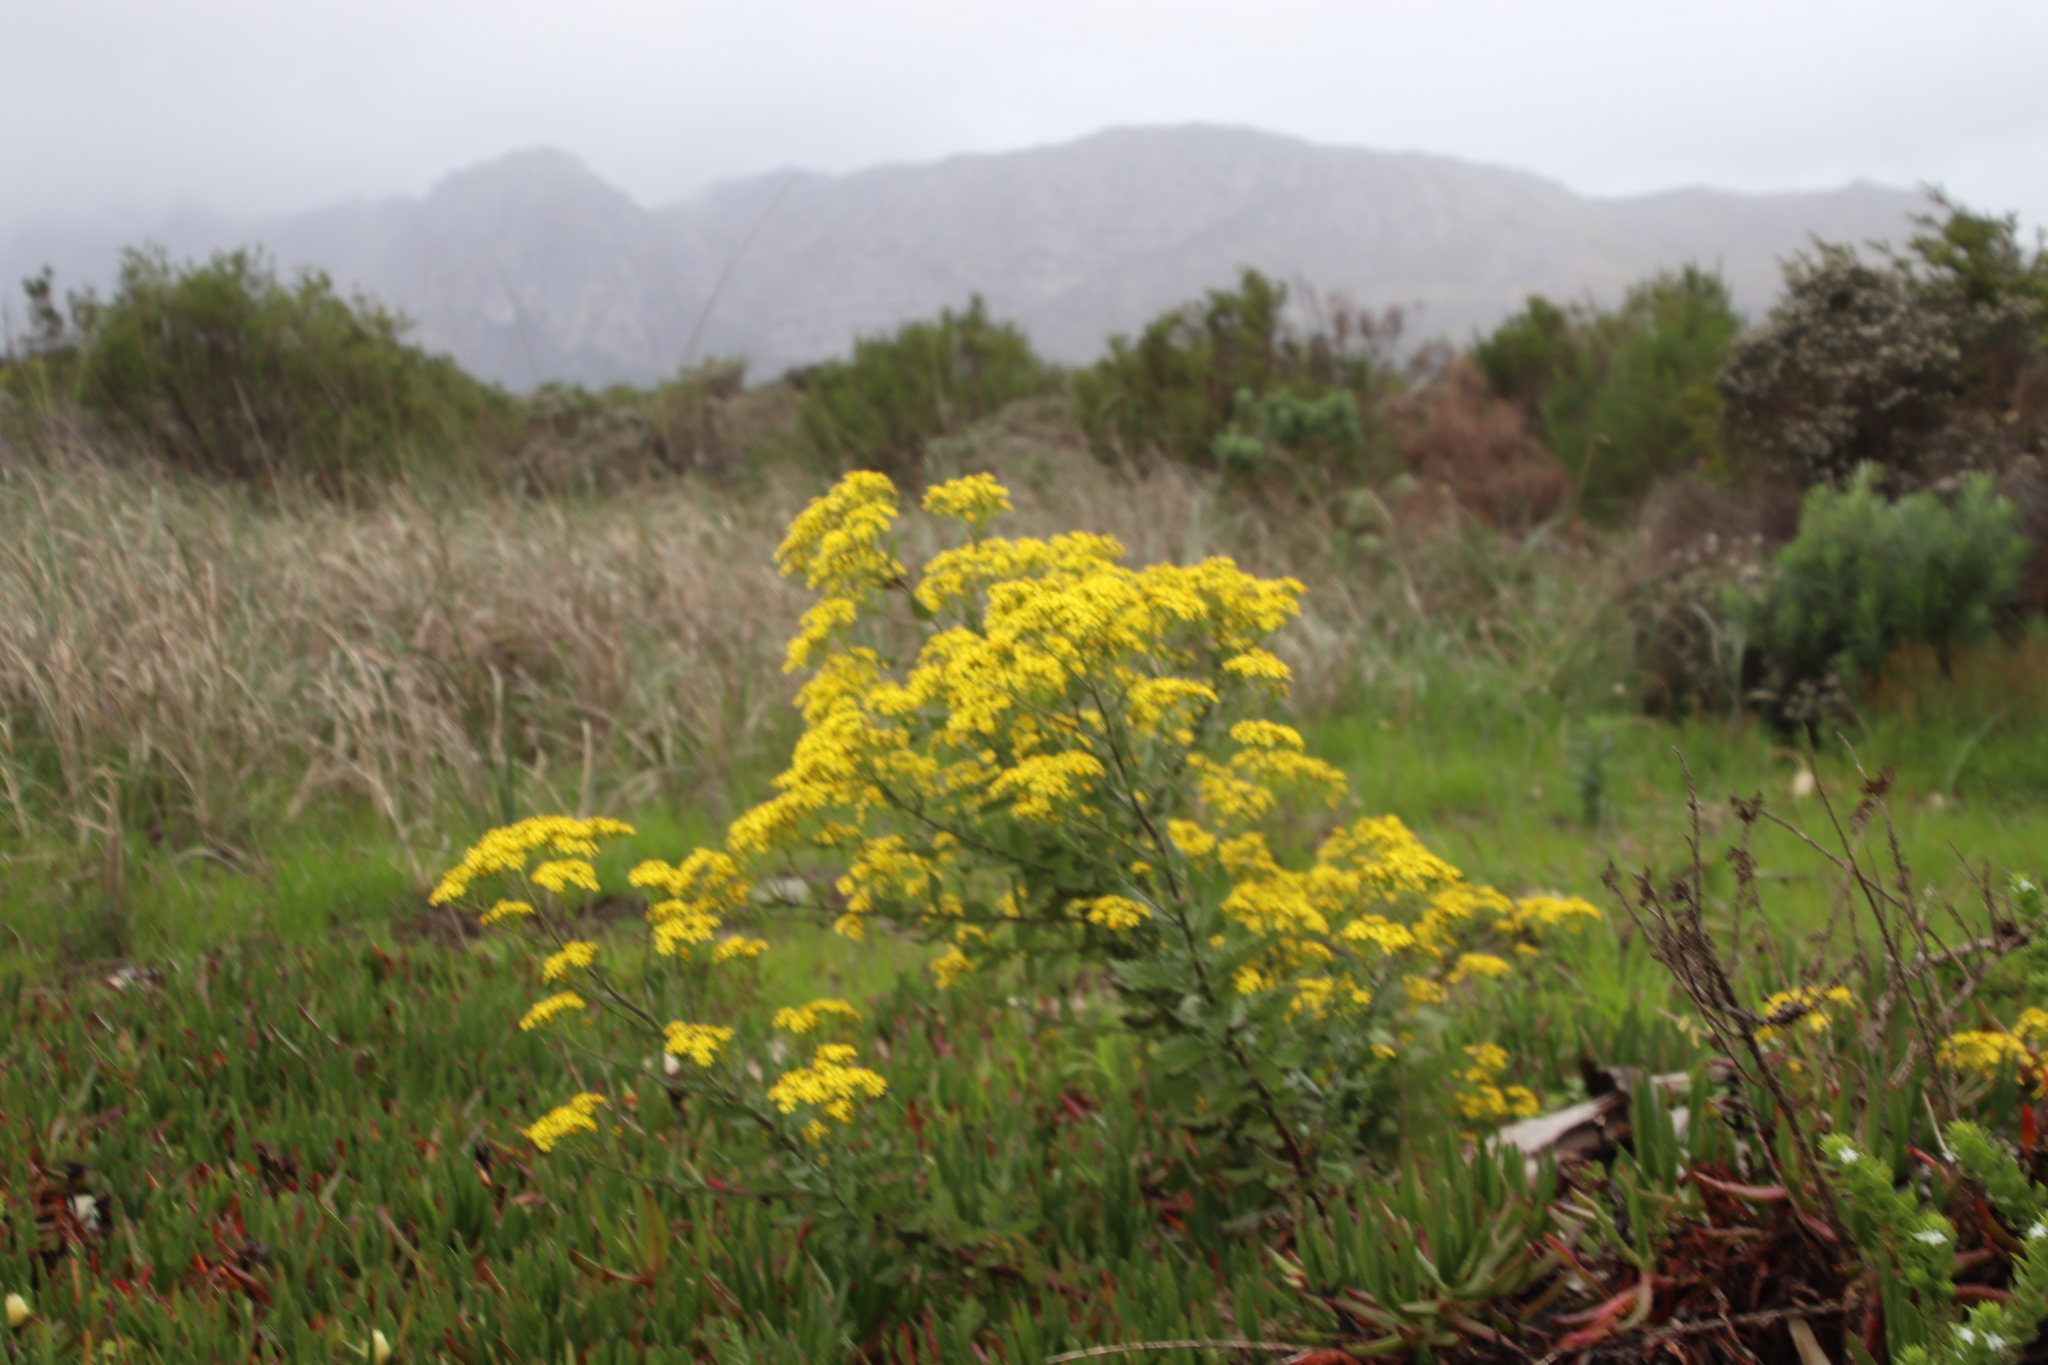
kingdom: Plantae
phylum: Tracheophyta
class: Magnoliopsida
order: Asterales
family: Asteraceae
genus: Senecio
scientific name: Senecio subcanescens
